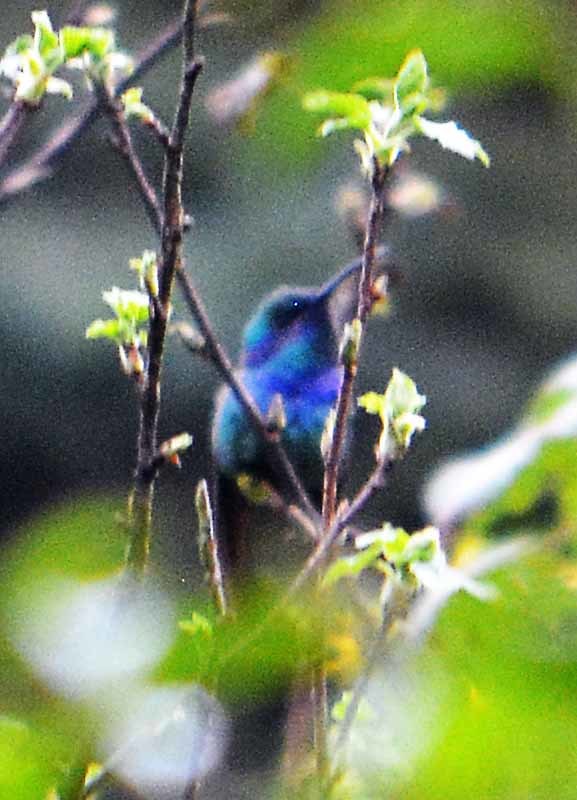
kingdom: Animalia
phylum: Chordata
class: Aves
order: Apodiformes
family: Trochilidae
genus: Colibri
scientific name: Colibri thalassinus
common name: Green violetear
